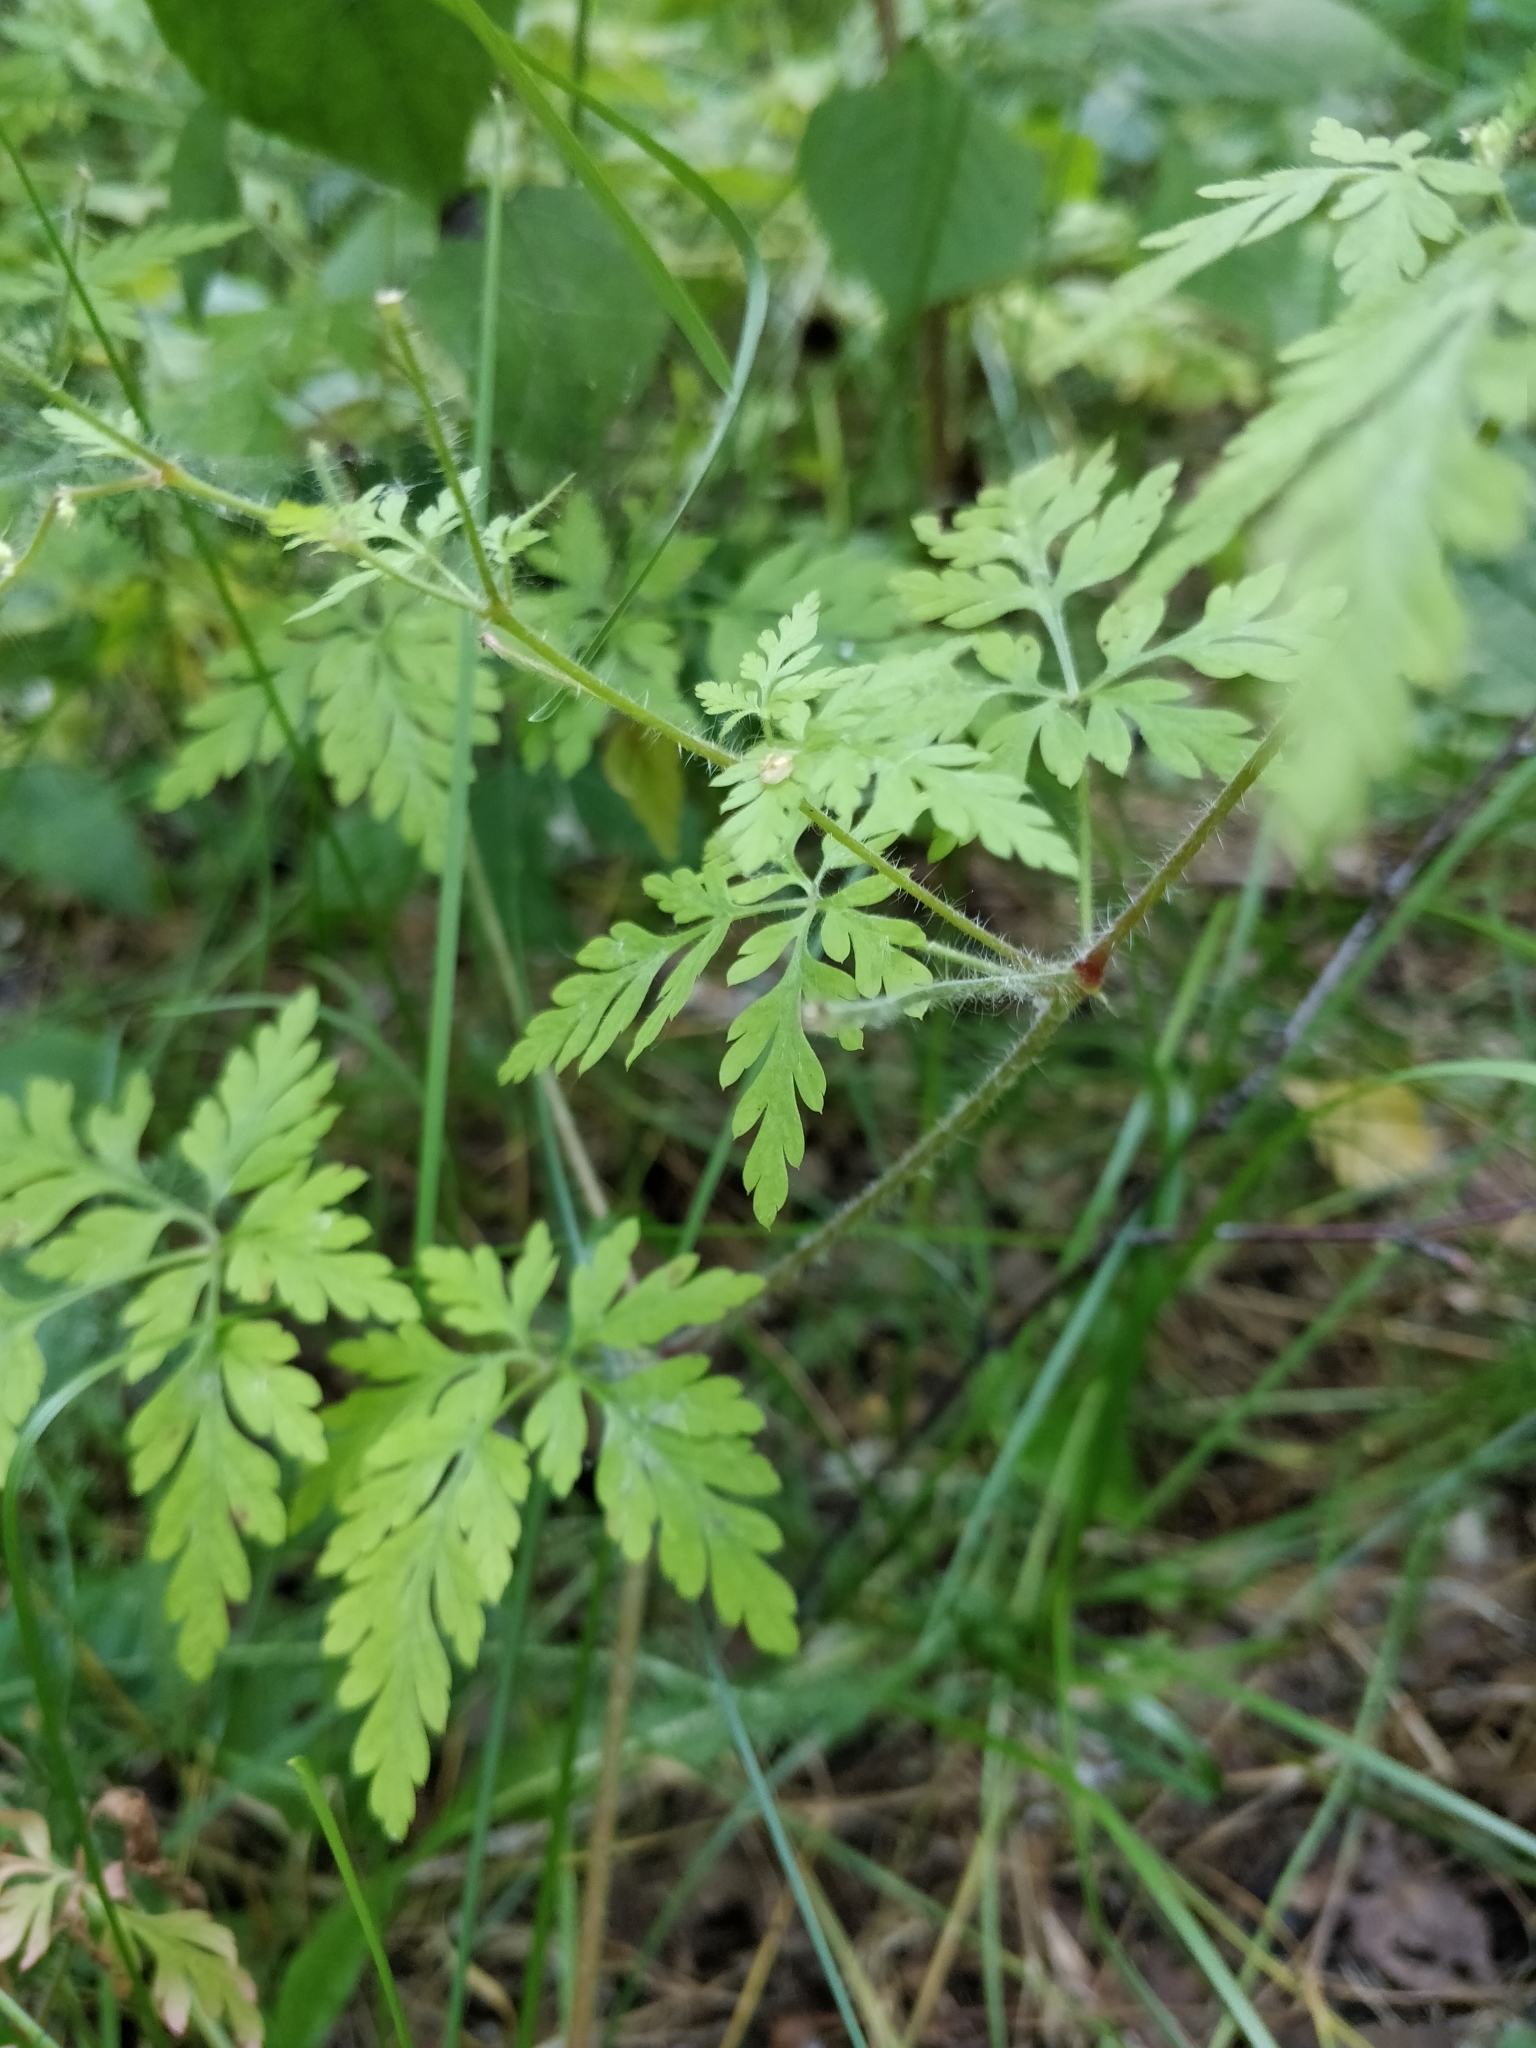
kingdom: Plantae
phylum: Tracheophyta
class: Magnoliopsida
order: Geraniales
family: Geraniaceae
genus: Geranium
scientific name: Geranium robertianum
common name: Herb-robert
